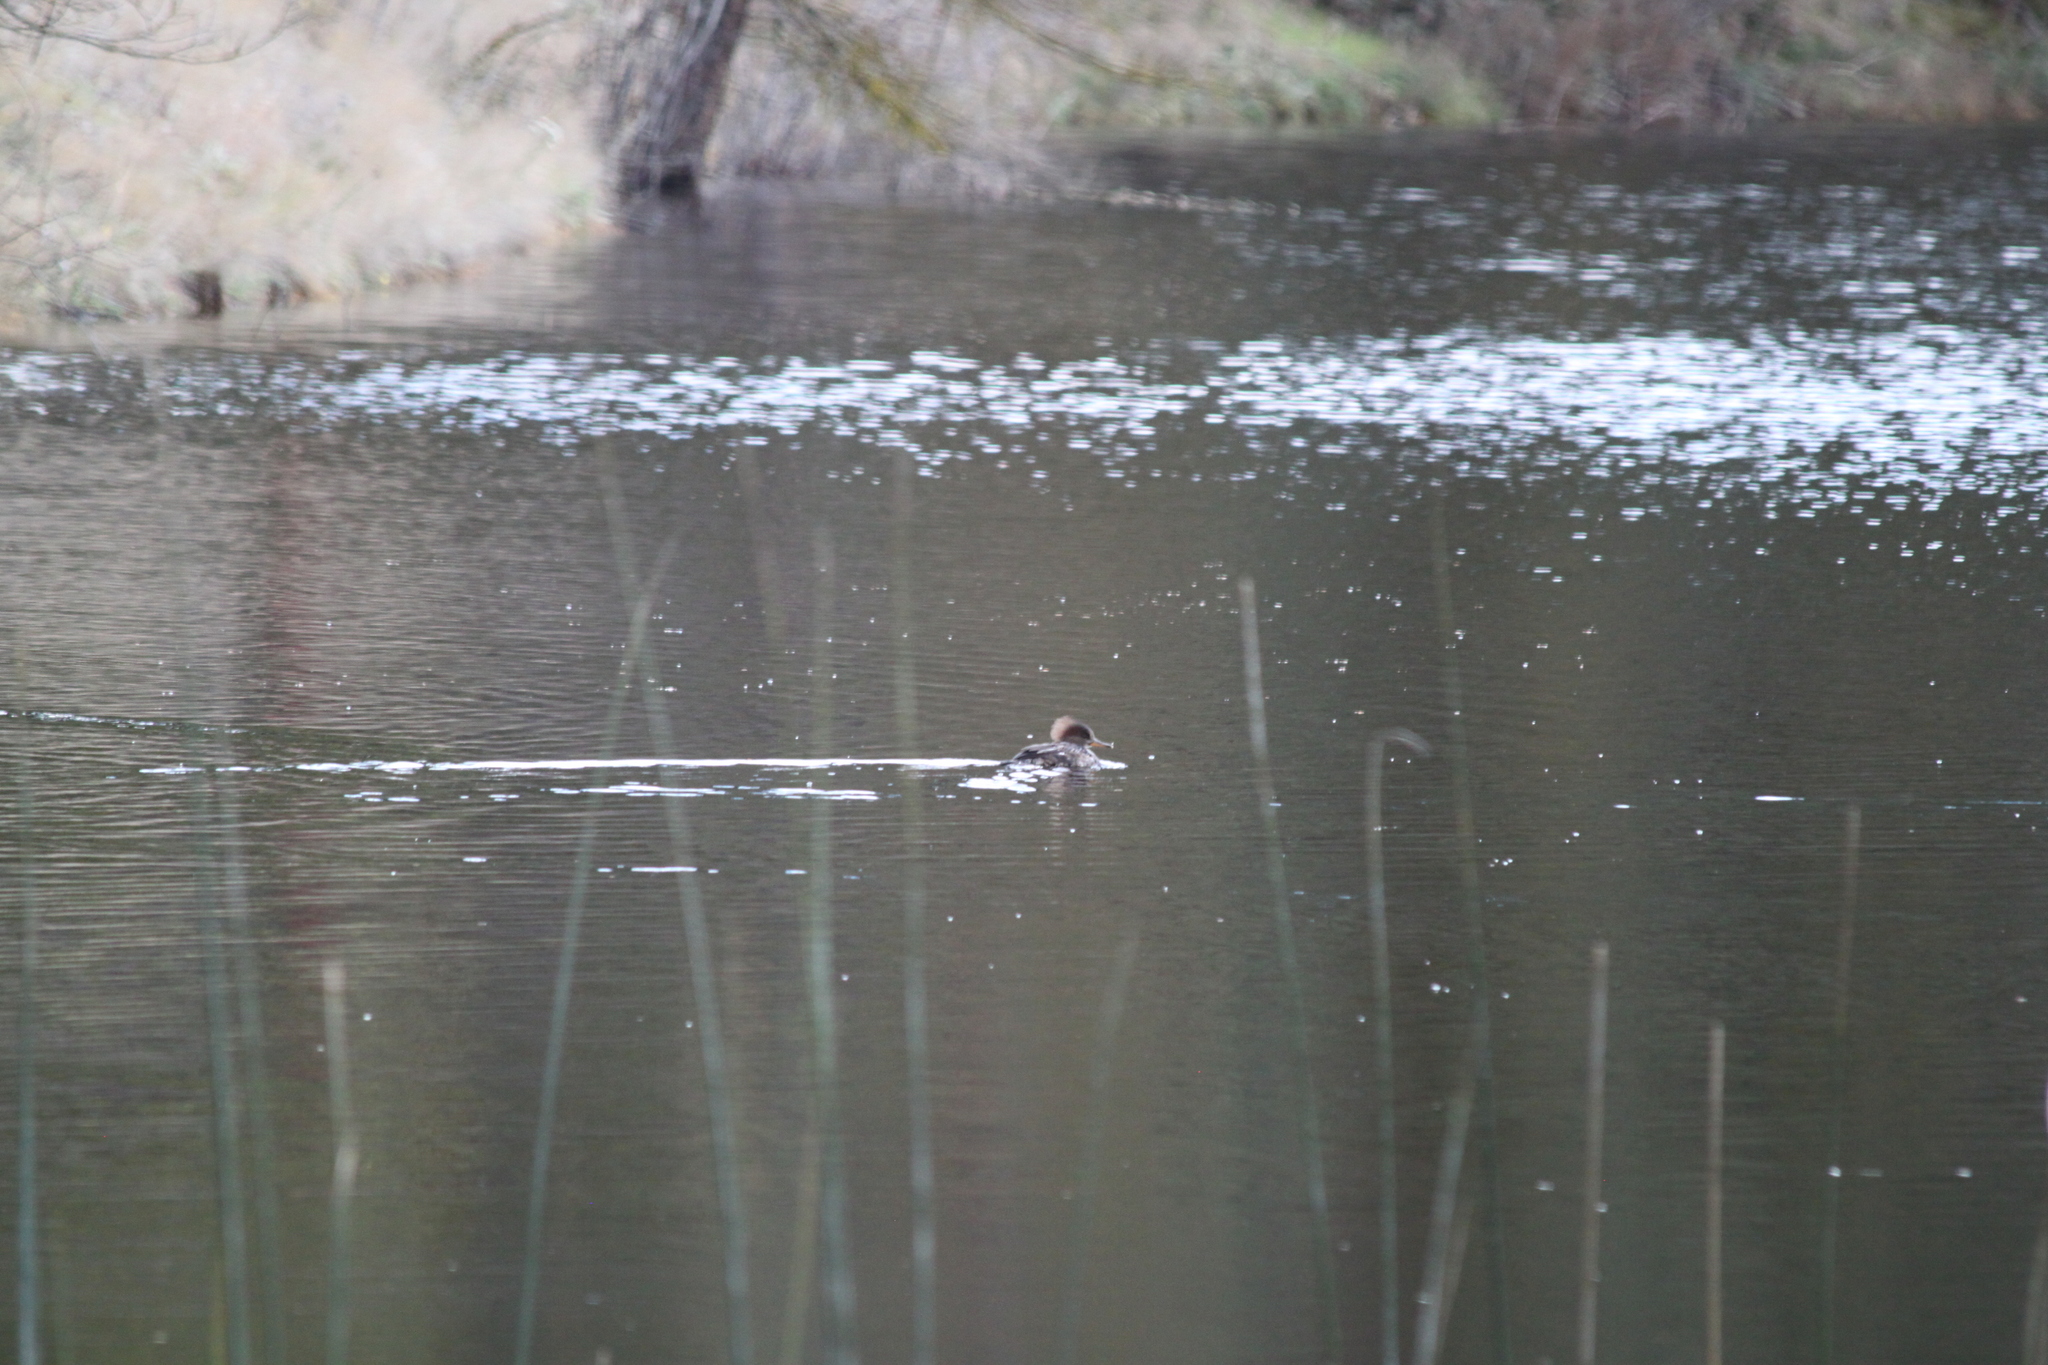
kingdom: Animalia
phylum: Chordata
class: Aves
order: Anseriformes
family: Anatidae
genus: Lophodytes
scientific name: Lophodytes cucullatus
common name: Hooded merganser
